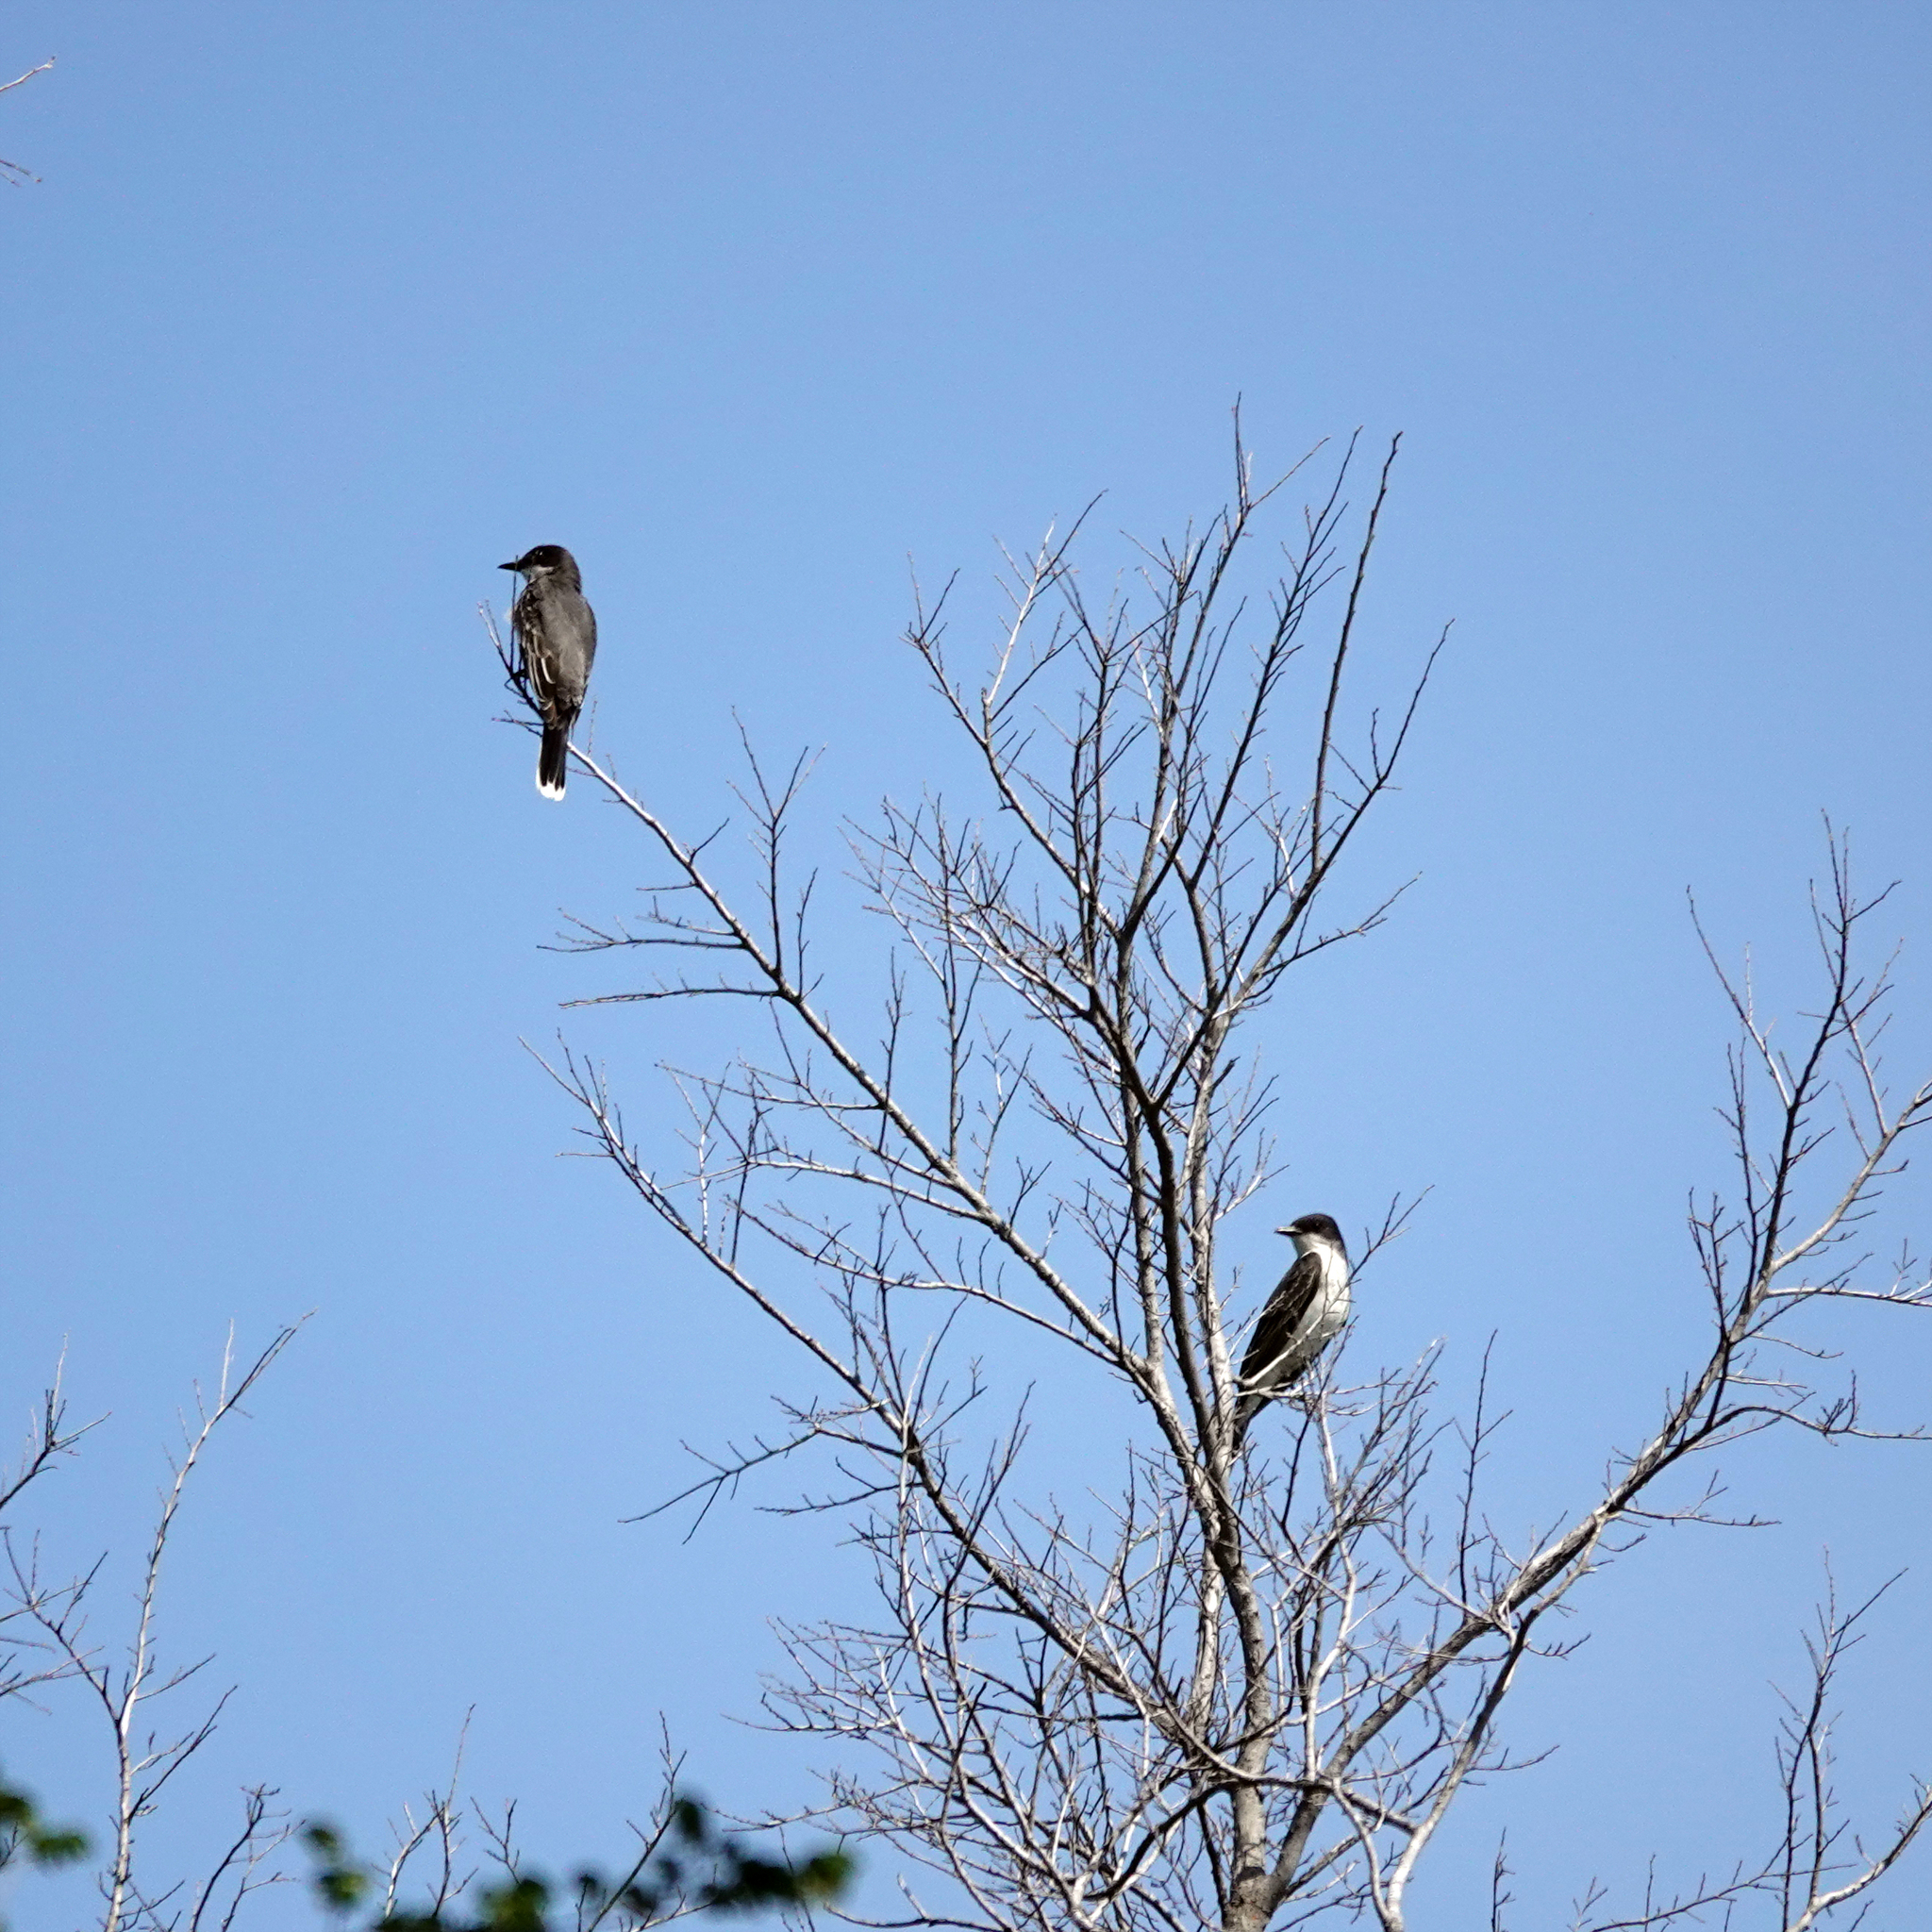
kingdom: Animalia
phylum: Chordata
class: Aves
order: Passeriformes
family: Tyrannidae
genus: Tyrannus
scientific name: Tyrannus tyrannus
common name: Eastern kingbird
